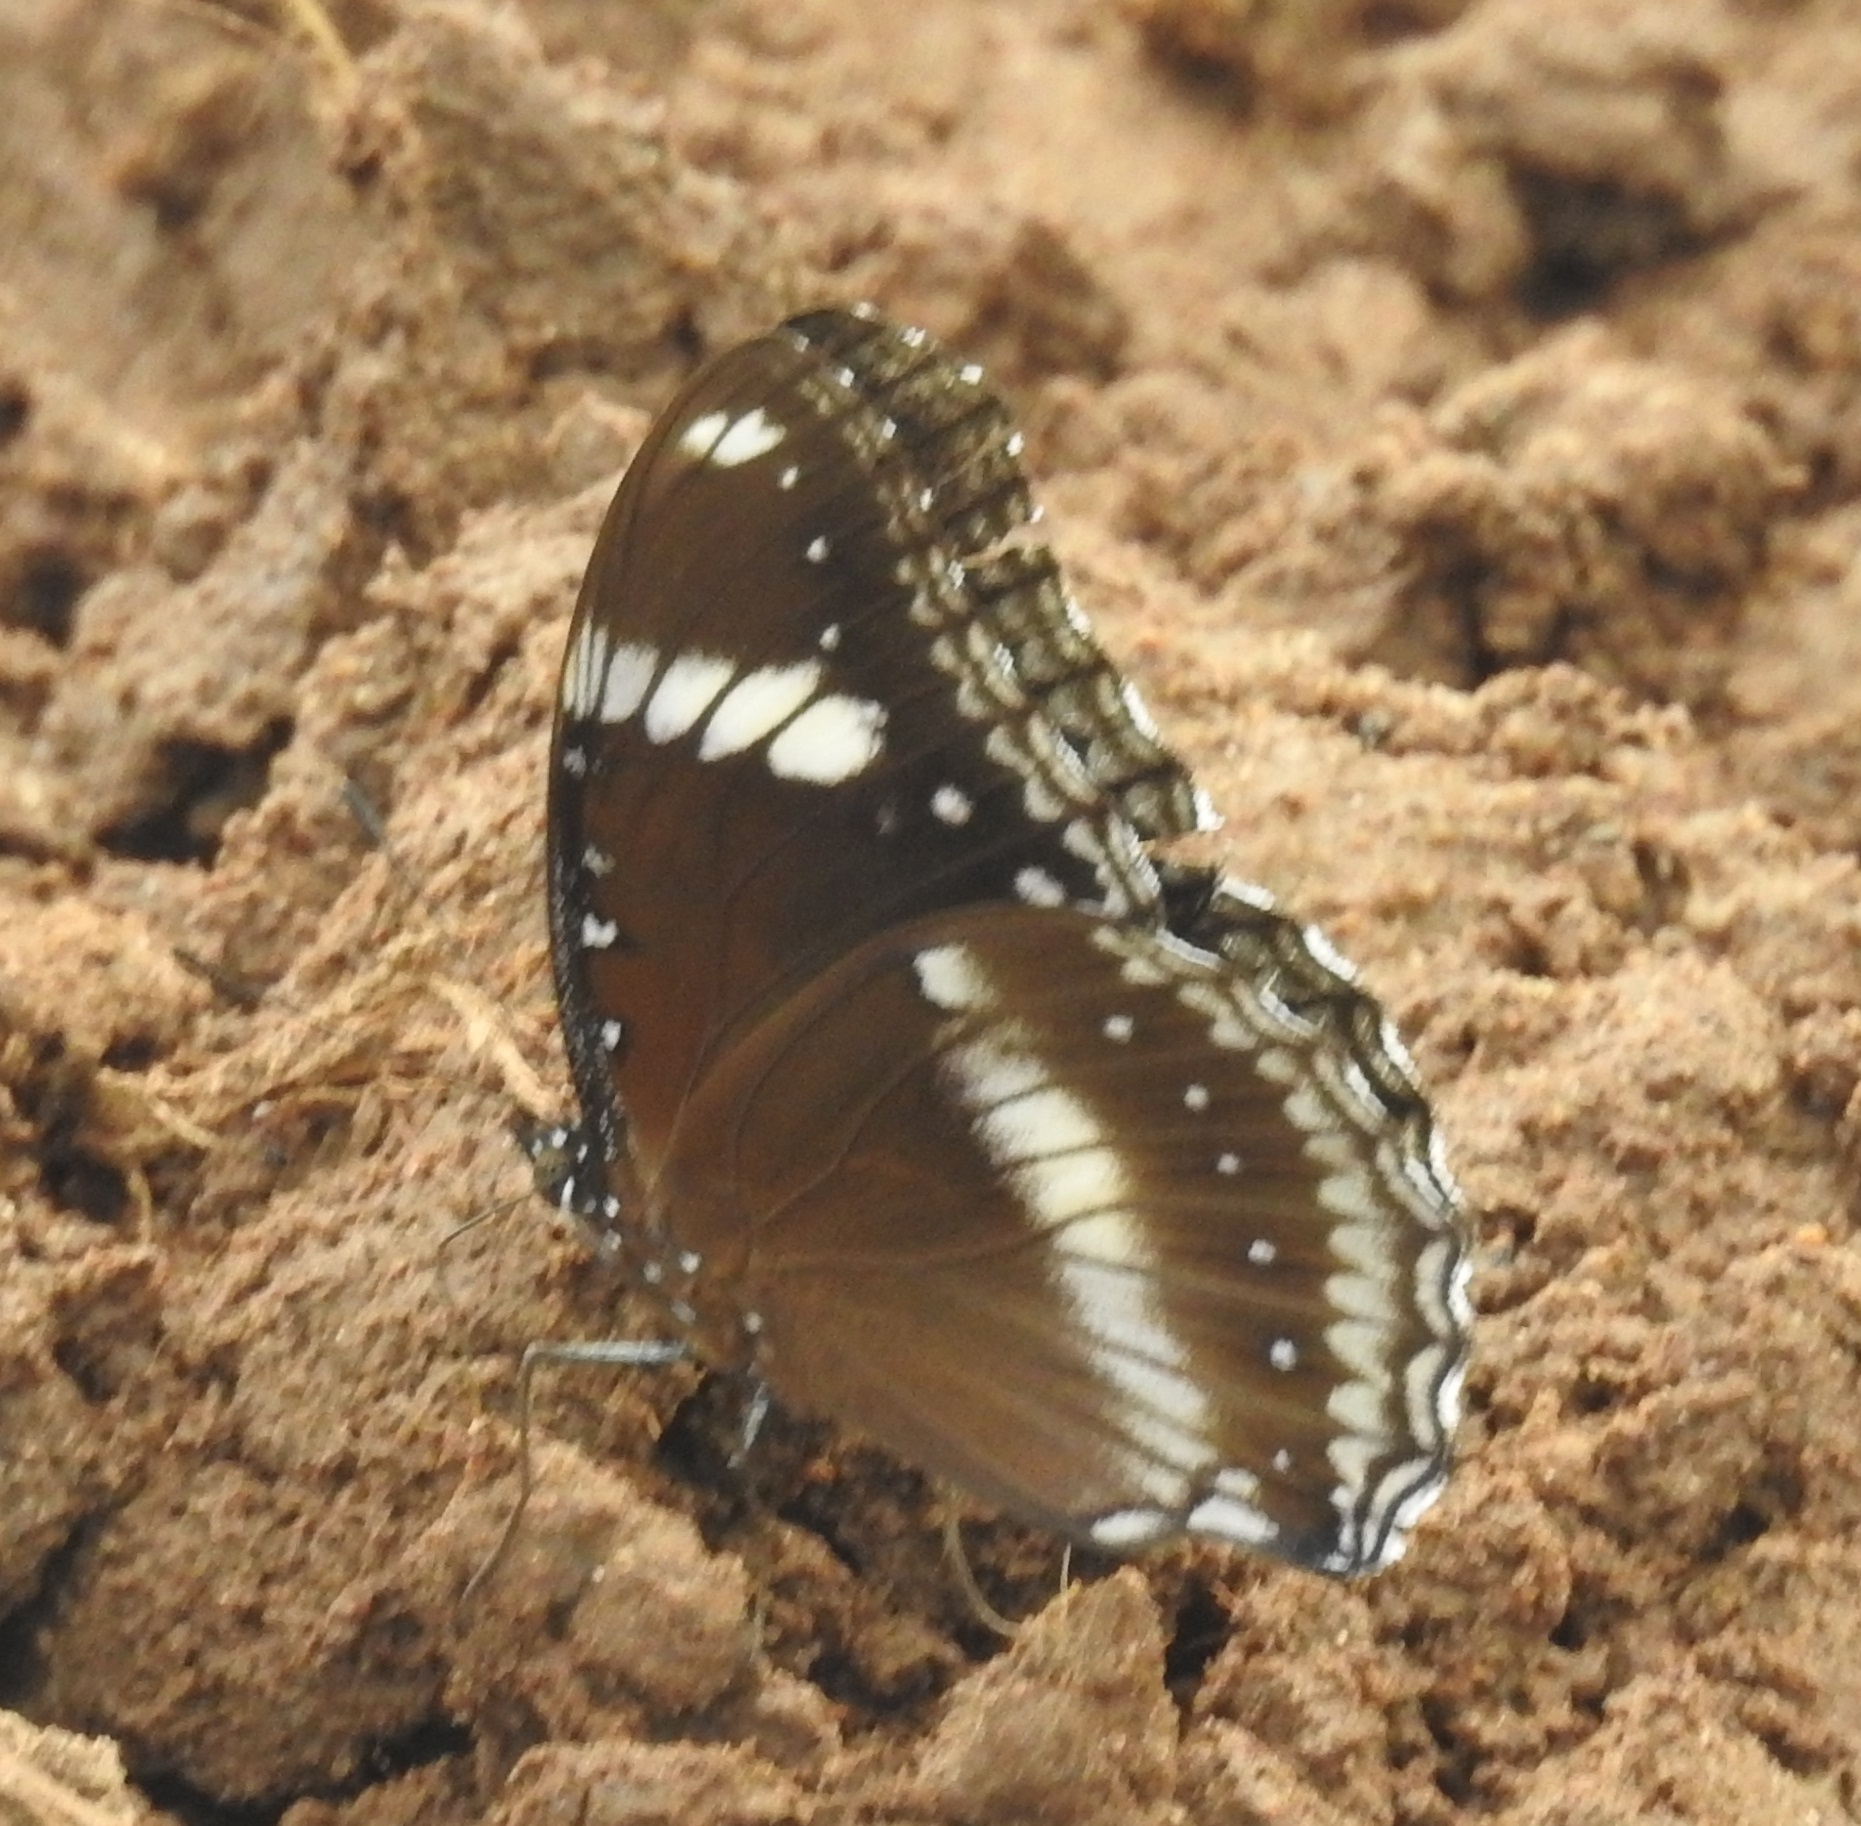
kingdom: Animalia
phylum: Arthropoda
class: Insecta
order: Lepidoptera
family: Nymphalidae
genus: Hypolimnas
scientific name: Hypolimnas bolina
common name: Great eggfly
